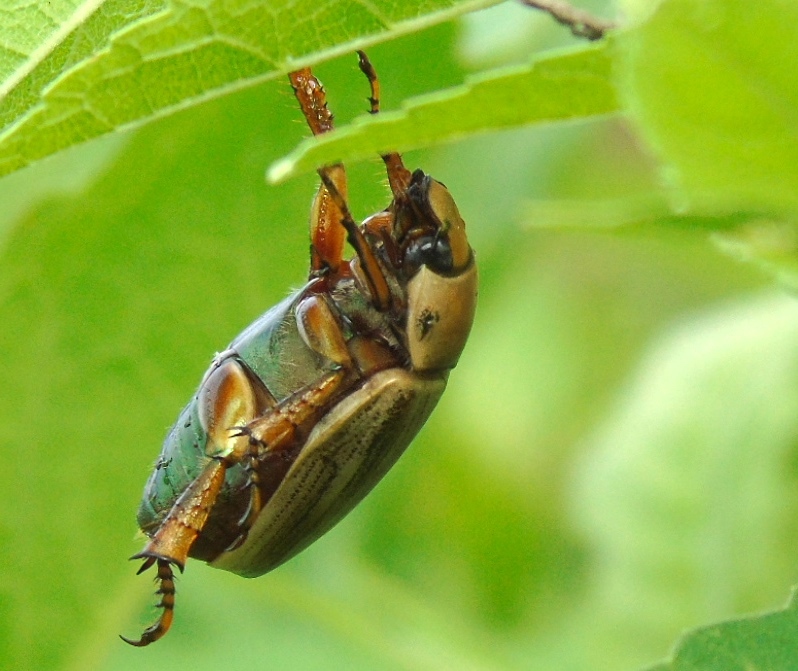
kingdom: Animalia
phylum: Arthropoda
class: Insecta
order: Coleoptera
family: Scarabaeidae
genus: Pelidnota
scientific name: Pelidnota virescens
